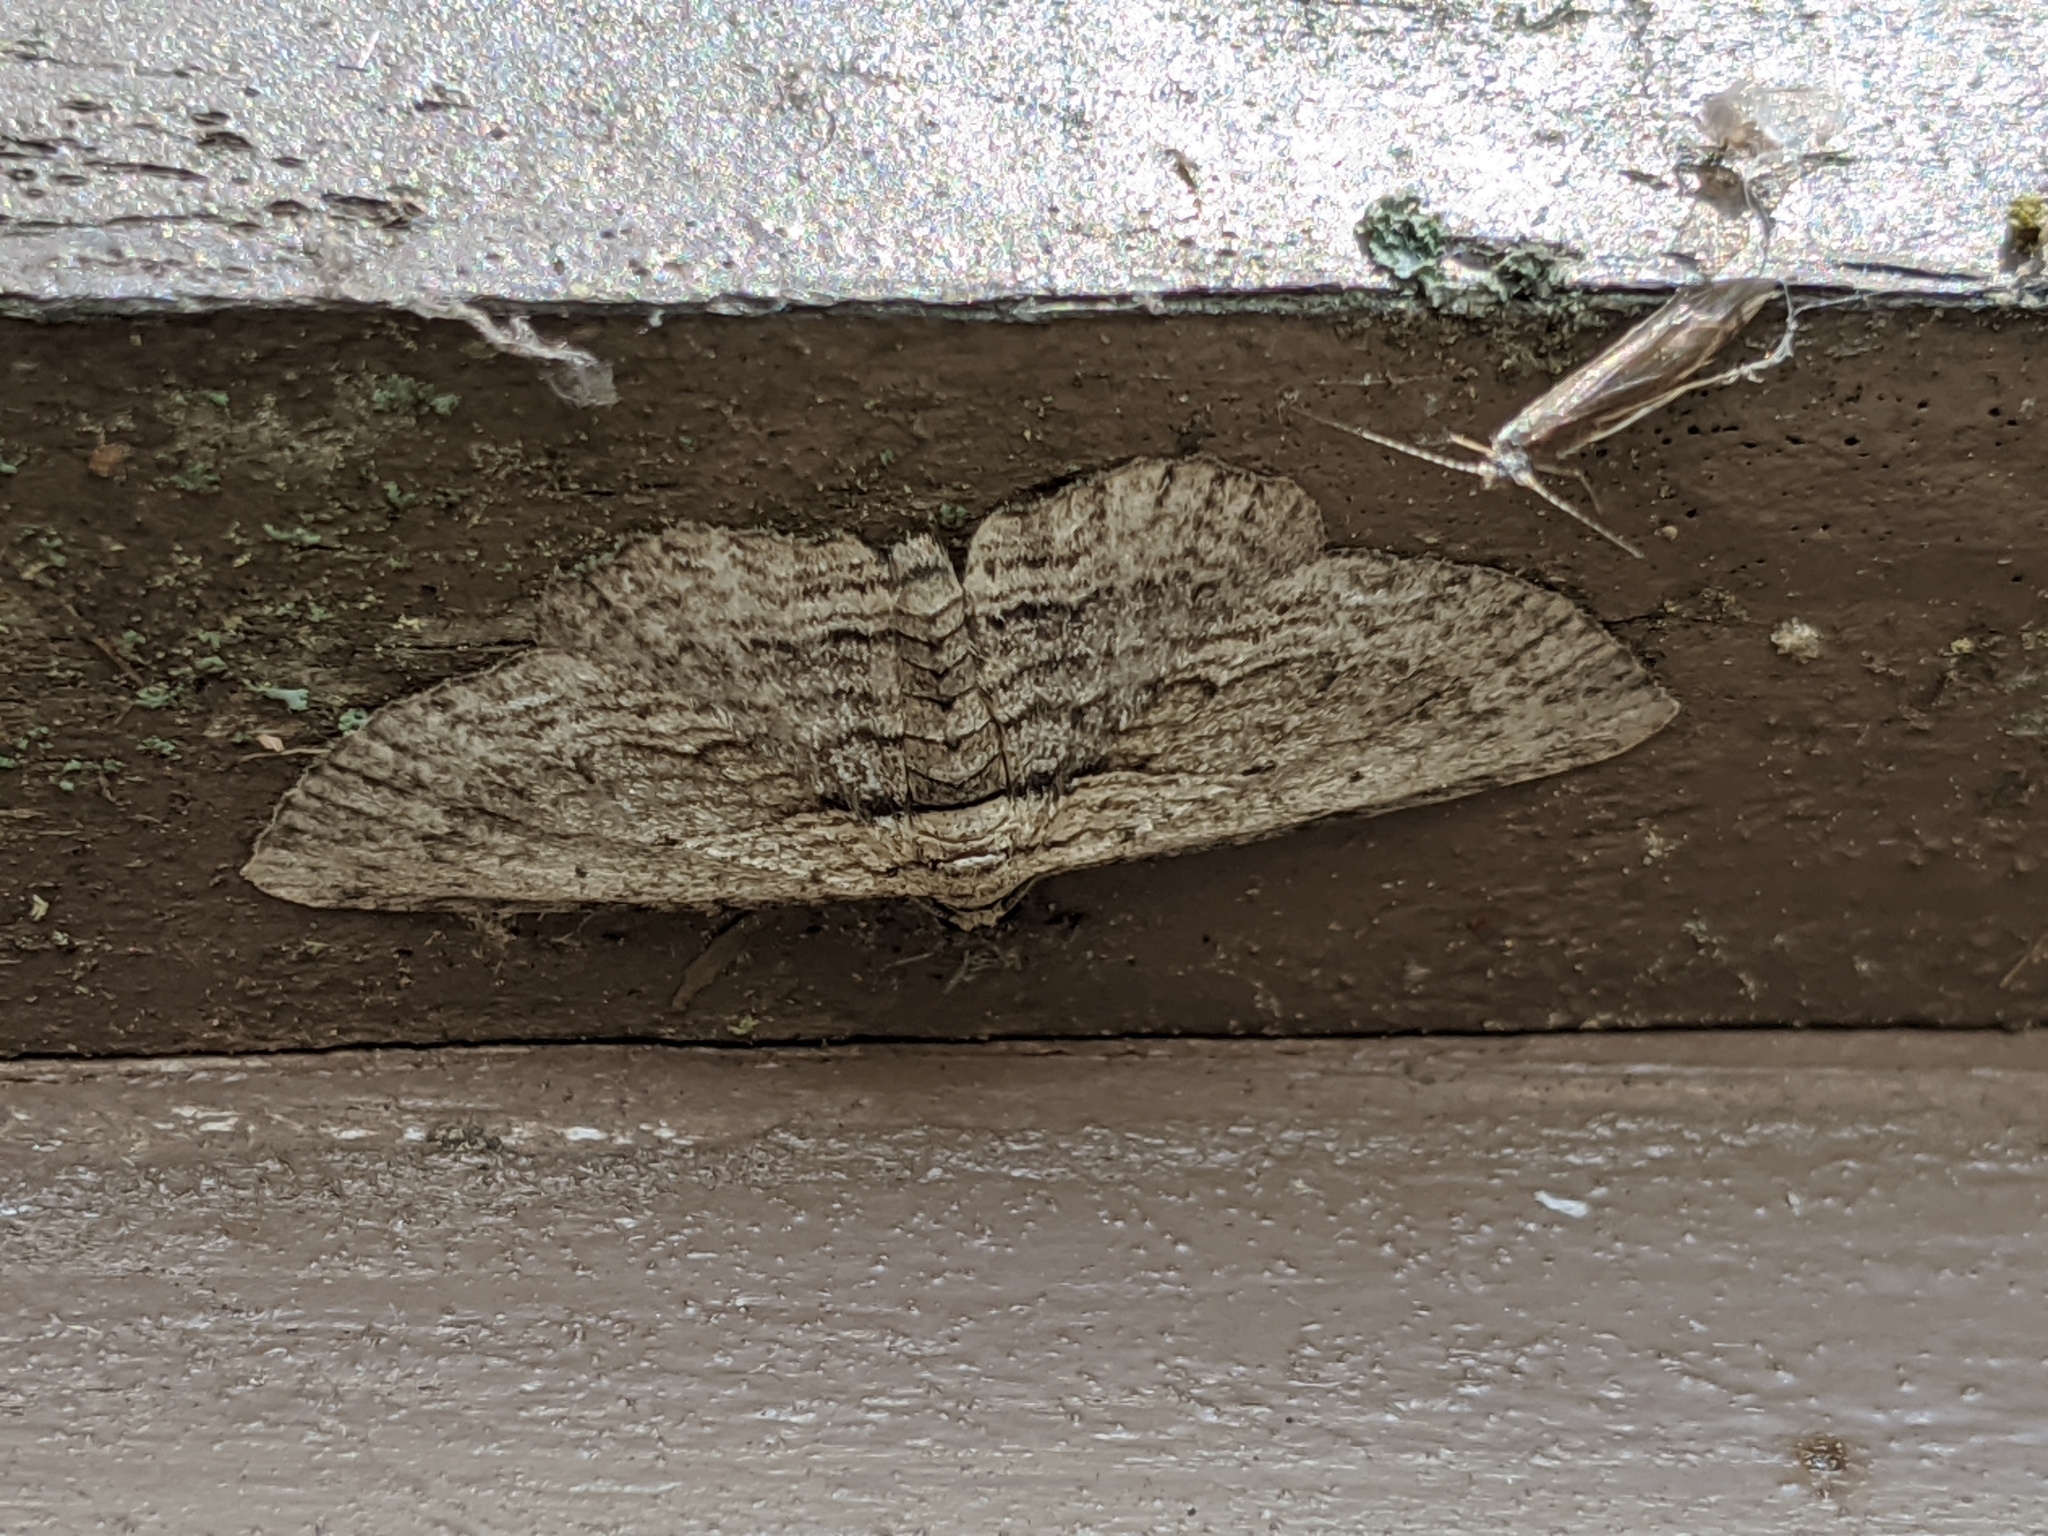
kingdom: Animalia
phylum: Arthropoda
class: Insecta
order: Lepidoptera
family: Geometridae
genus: Horisme
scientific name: Horisme intestinata
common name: Brown bark carpet
